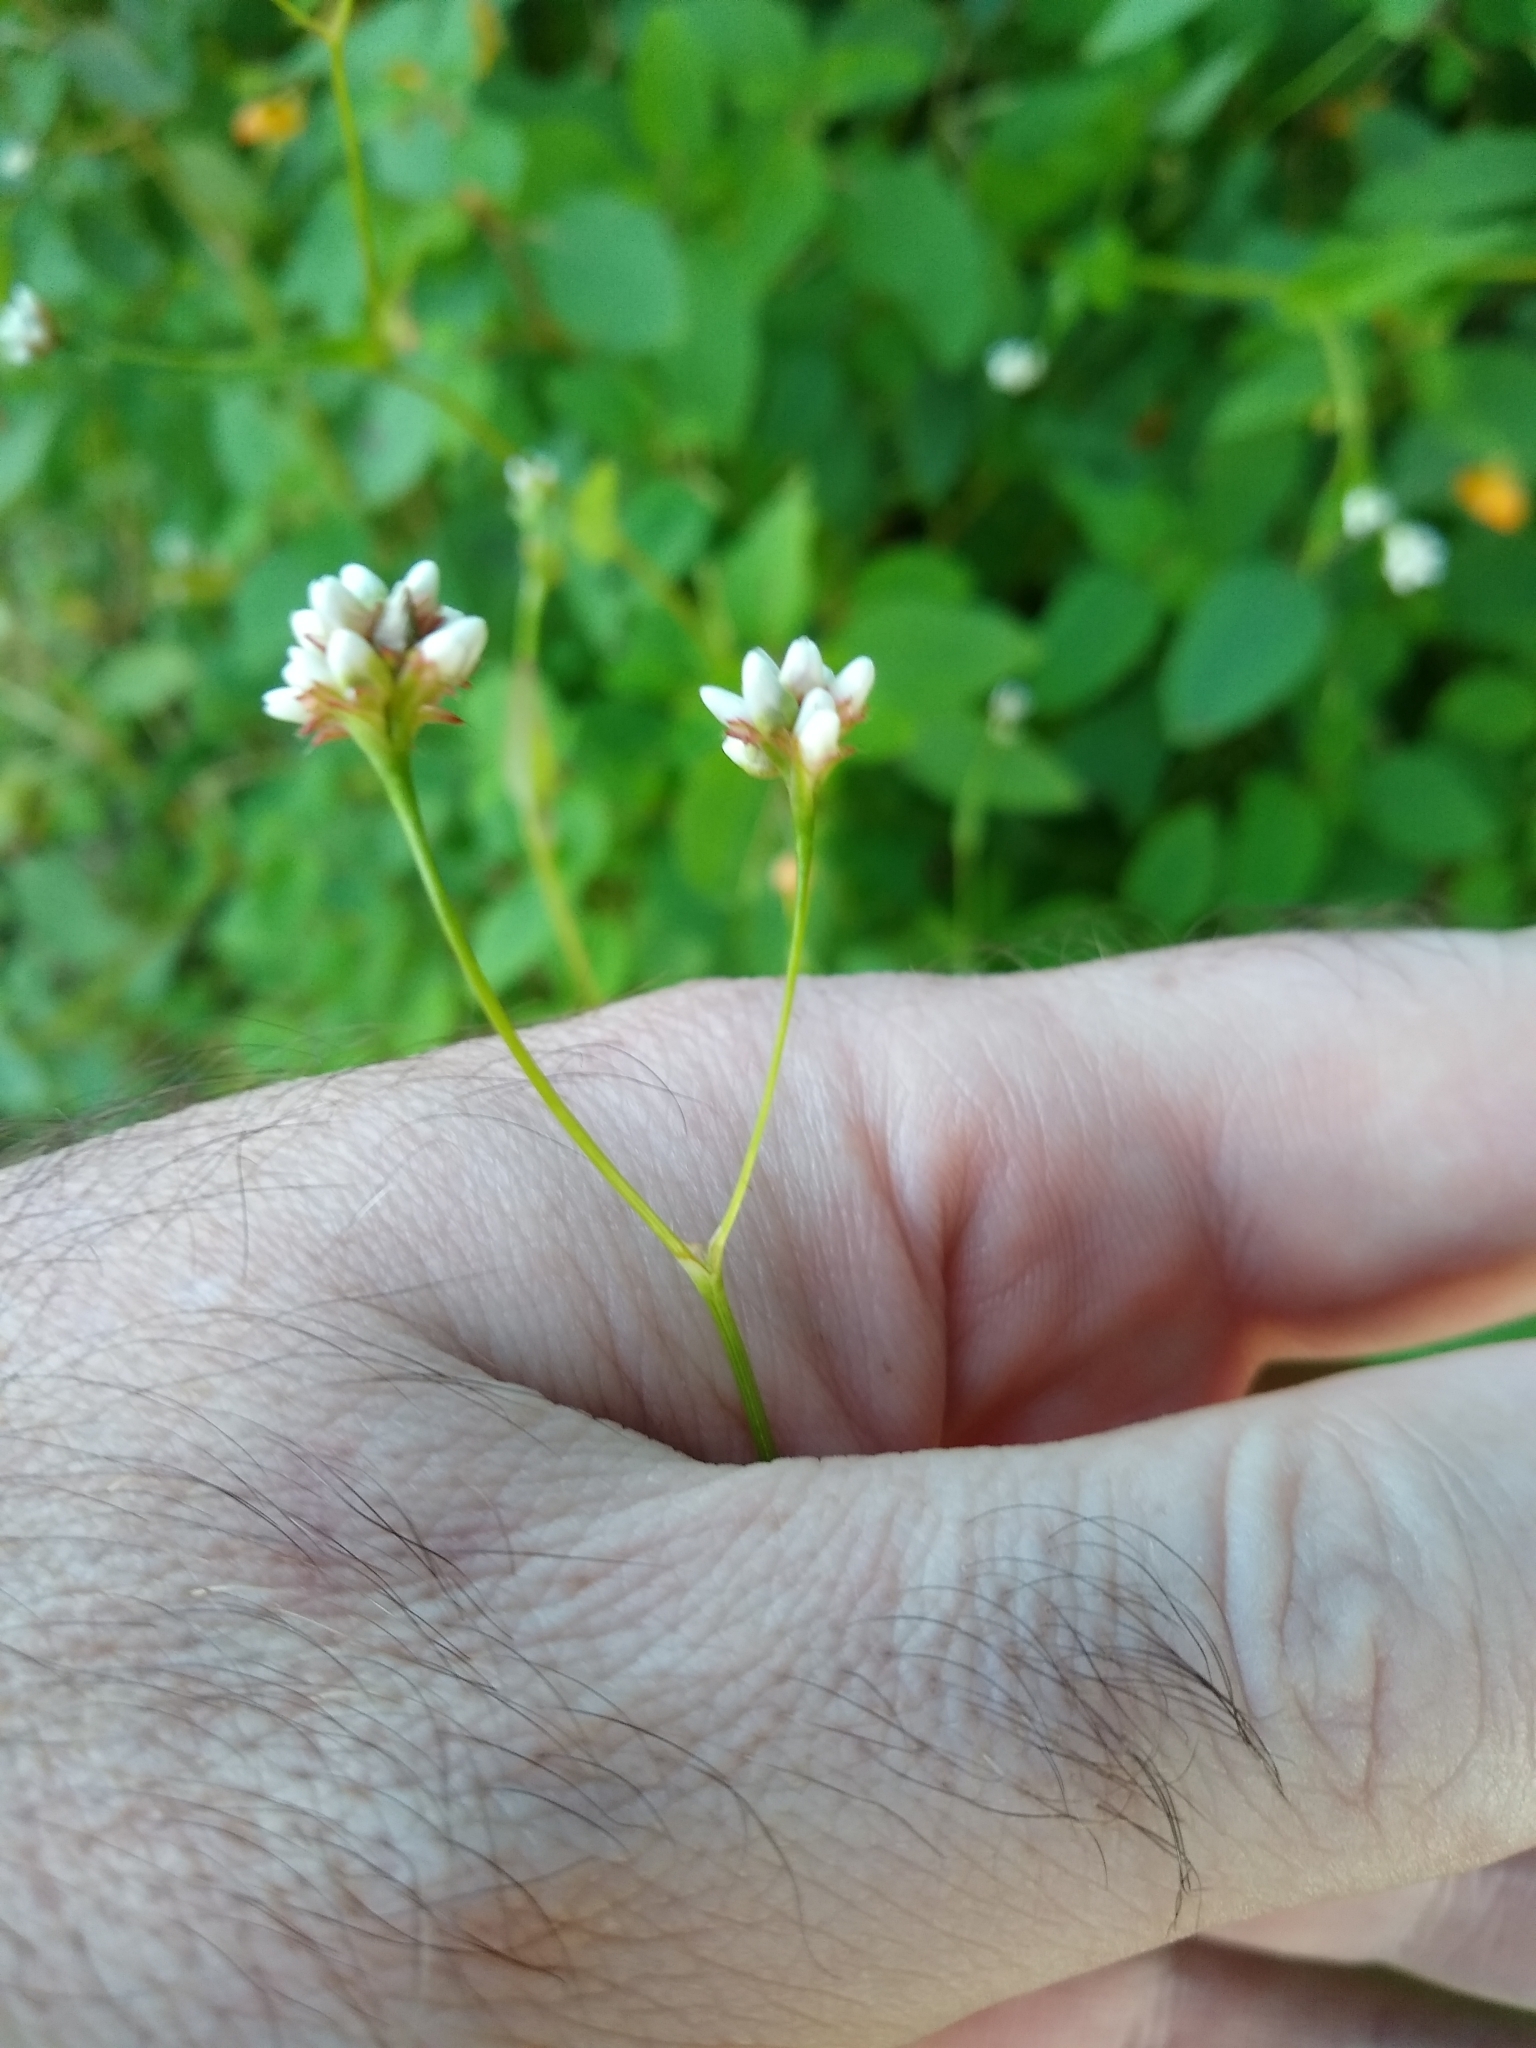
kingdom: Plantae
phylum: Tracheophyta
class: Magnoliopsida
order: Caryophyllales
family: Polygonaceae
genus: Persicaria
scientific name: Persicaria sagittata
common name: American tearthumb
